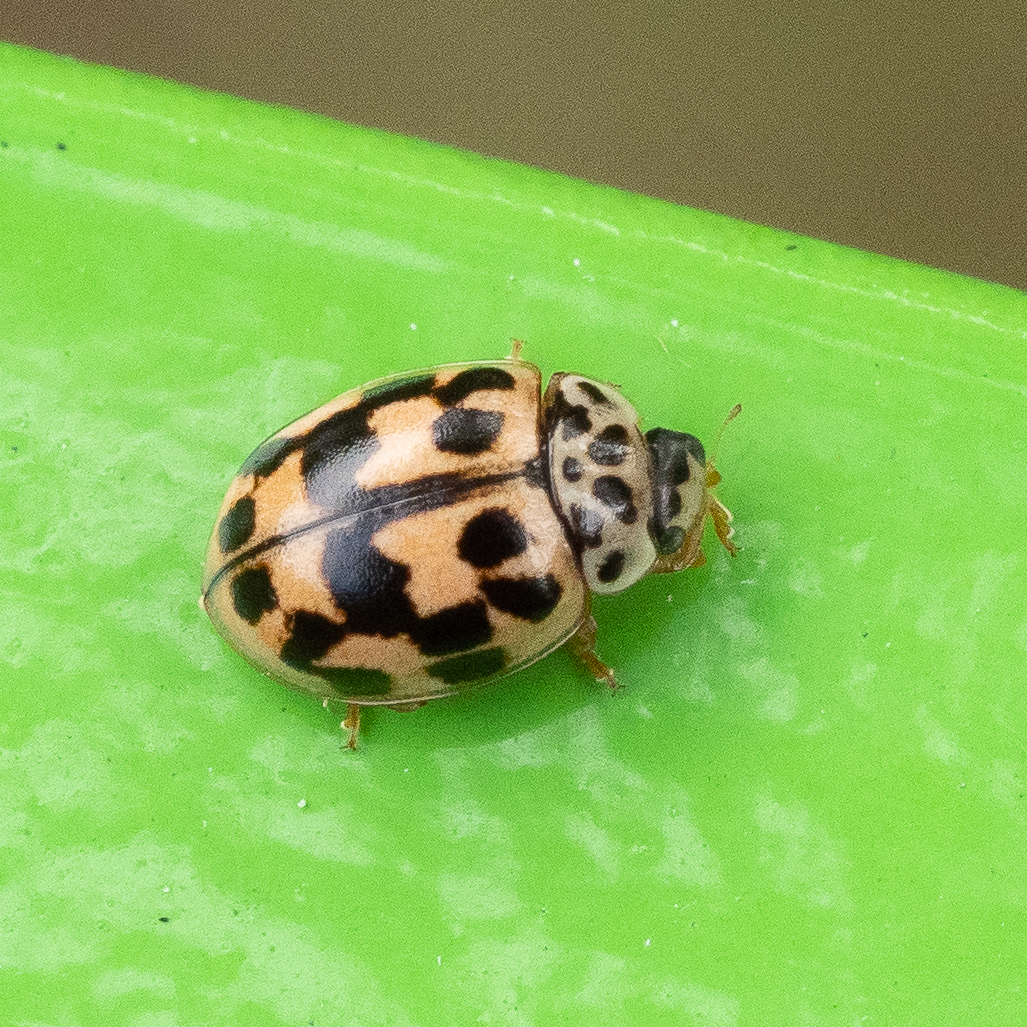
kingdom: Animalia
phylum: Arthropoda
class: Insecta
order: Coleoptera
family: Coccinellidae
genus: Oenopia
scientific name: Oenopia conglobata
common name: Ladybird beetle
